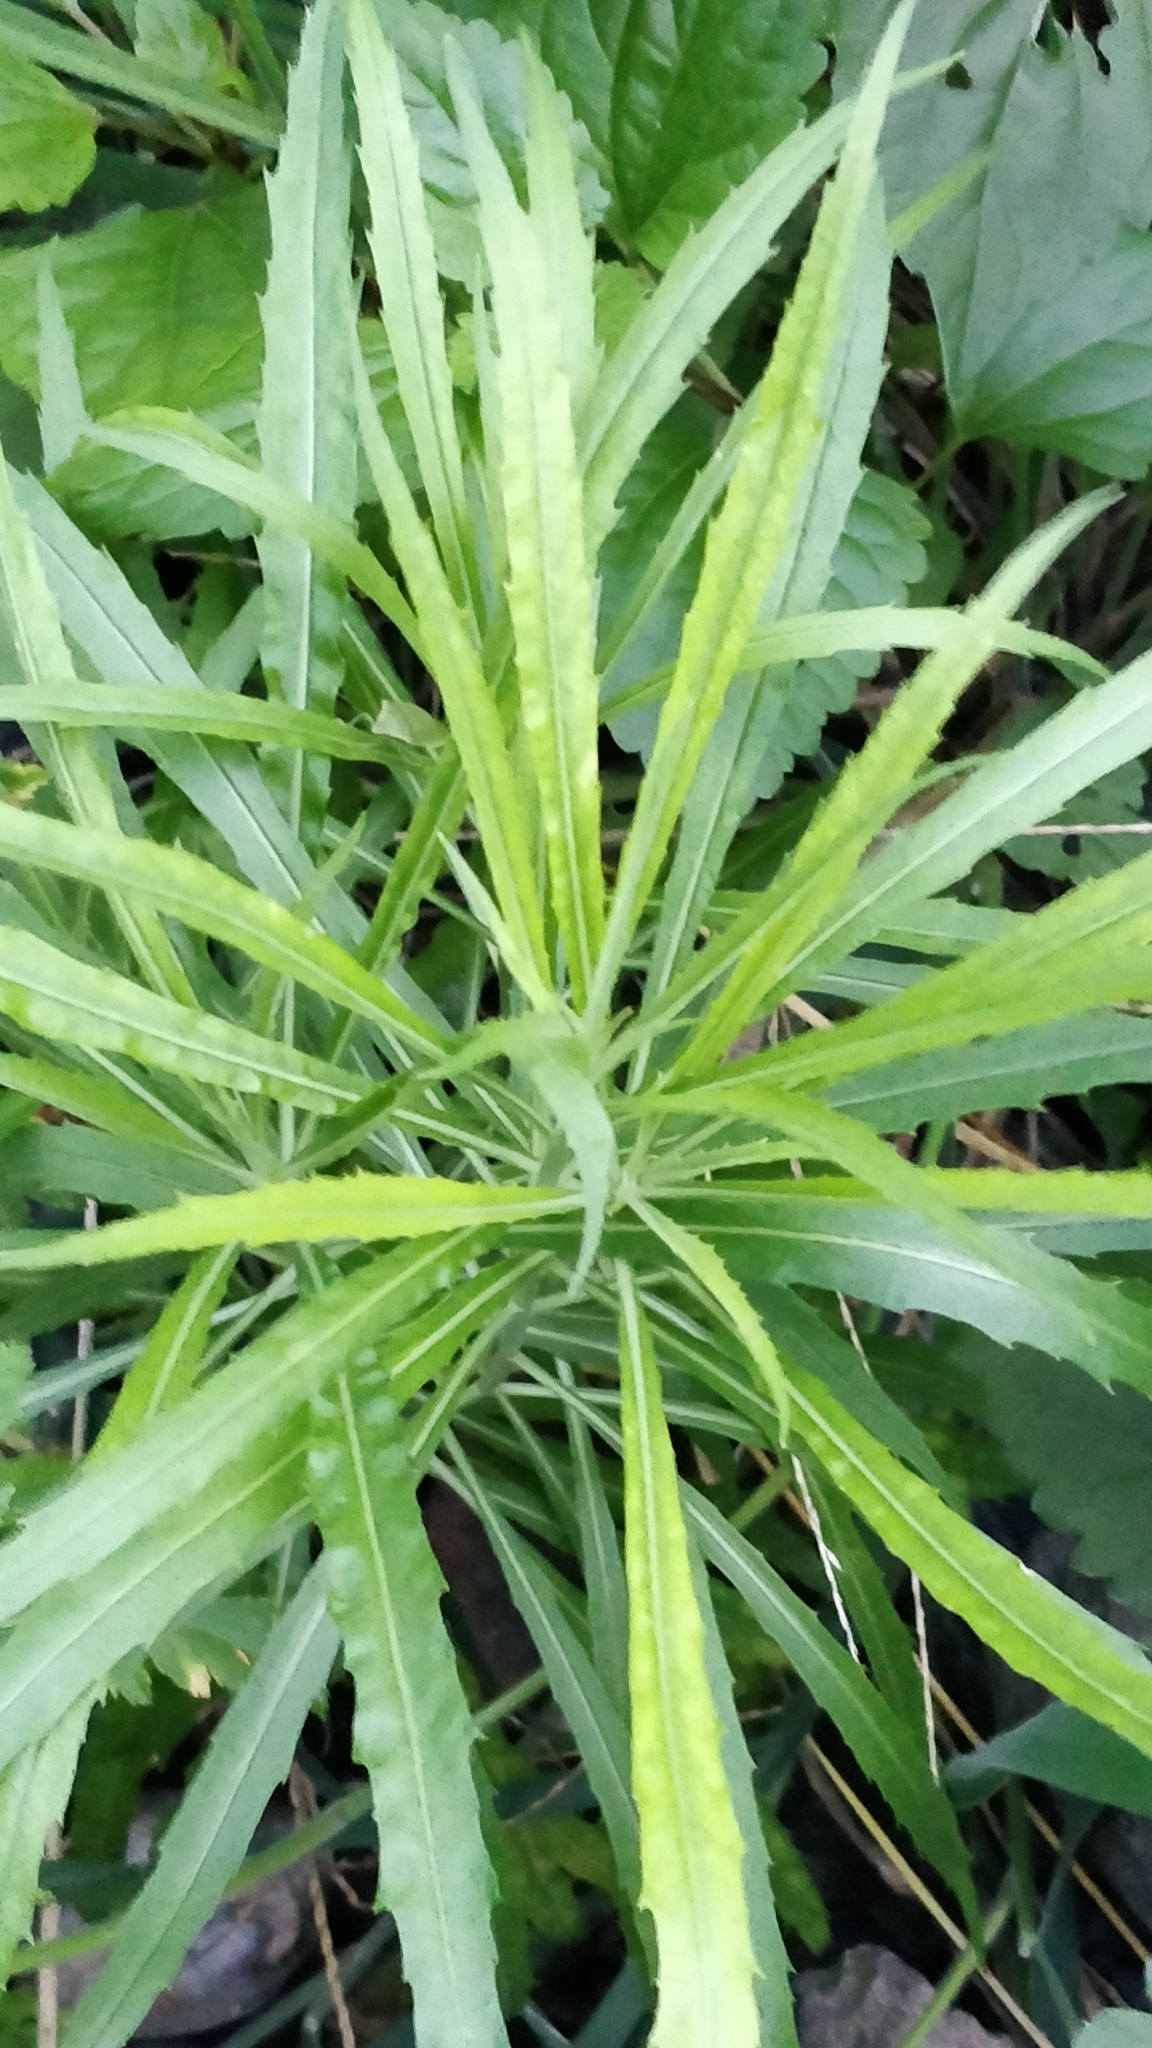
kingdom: Plantae
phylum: Tracheophyta
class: Magnoliopsida
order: Brassicales
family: Brassicaceae
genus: Erysimum
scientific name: Erysimum bicolor
